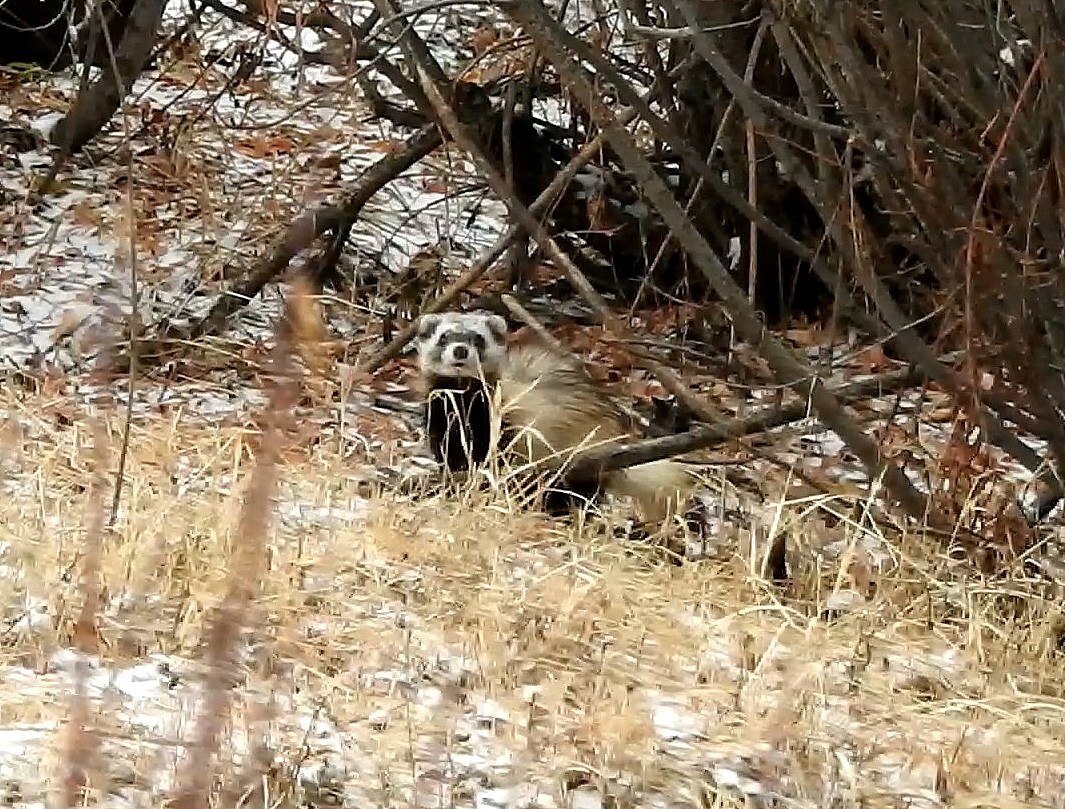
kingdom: Animalia
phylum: Chordata
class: Mammalia
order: Carnivora
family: Mustelidae
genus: Mustela
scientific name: Mustela eversmanii
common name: Steppe polecat
